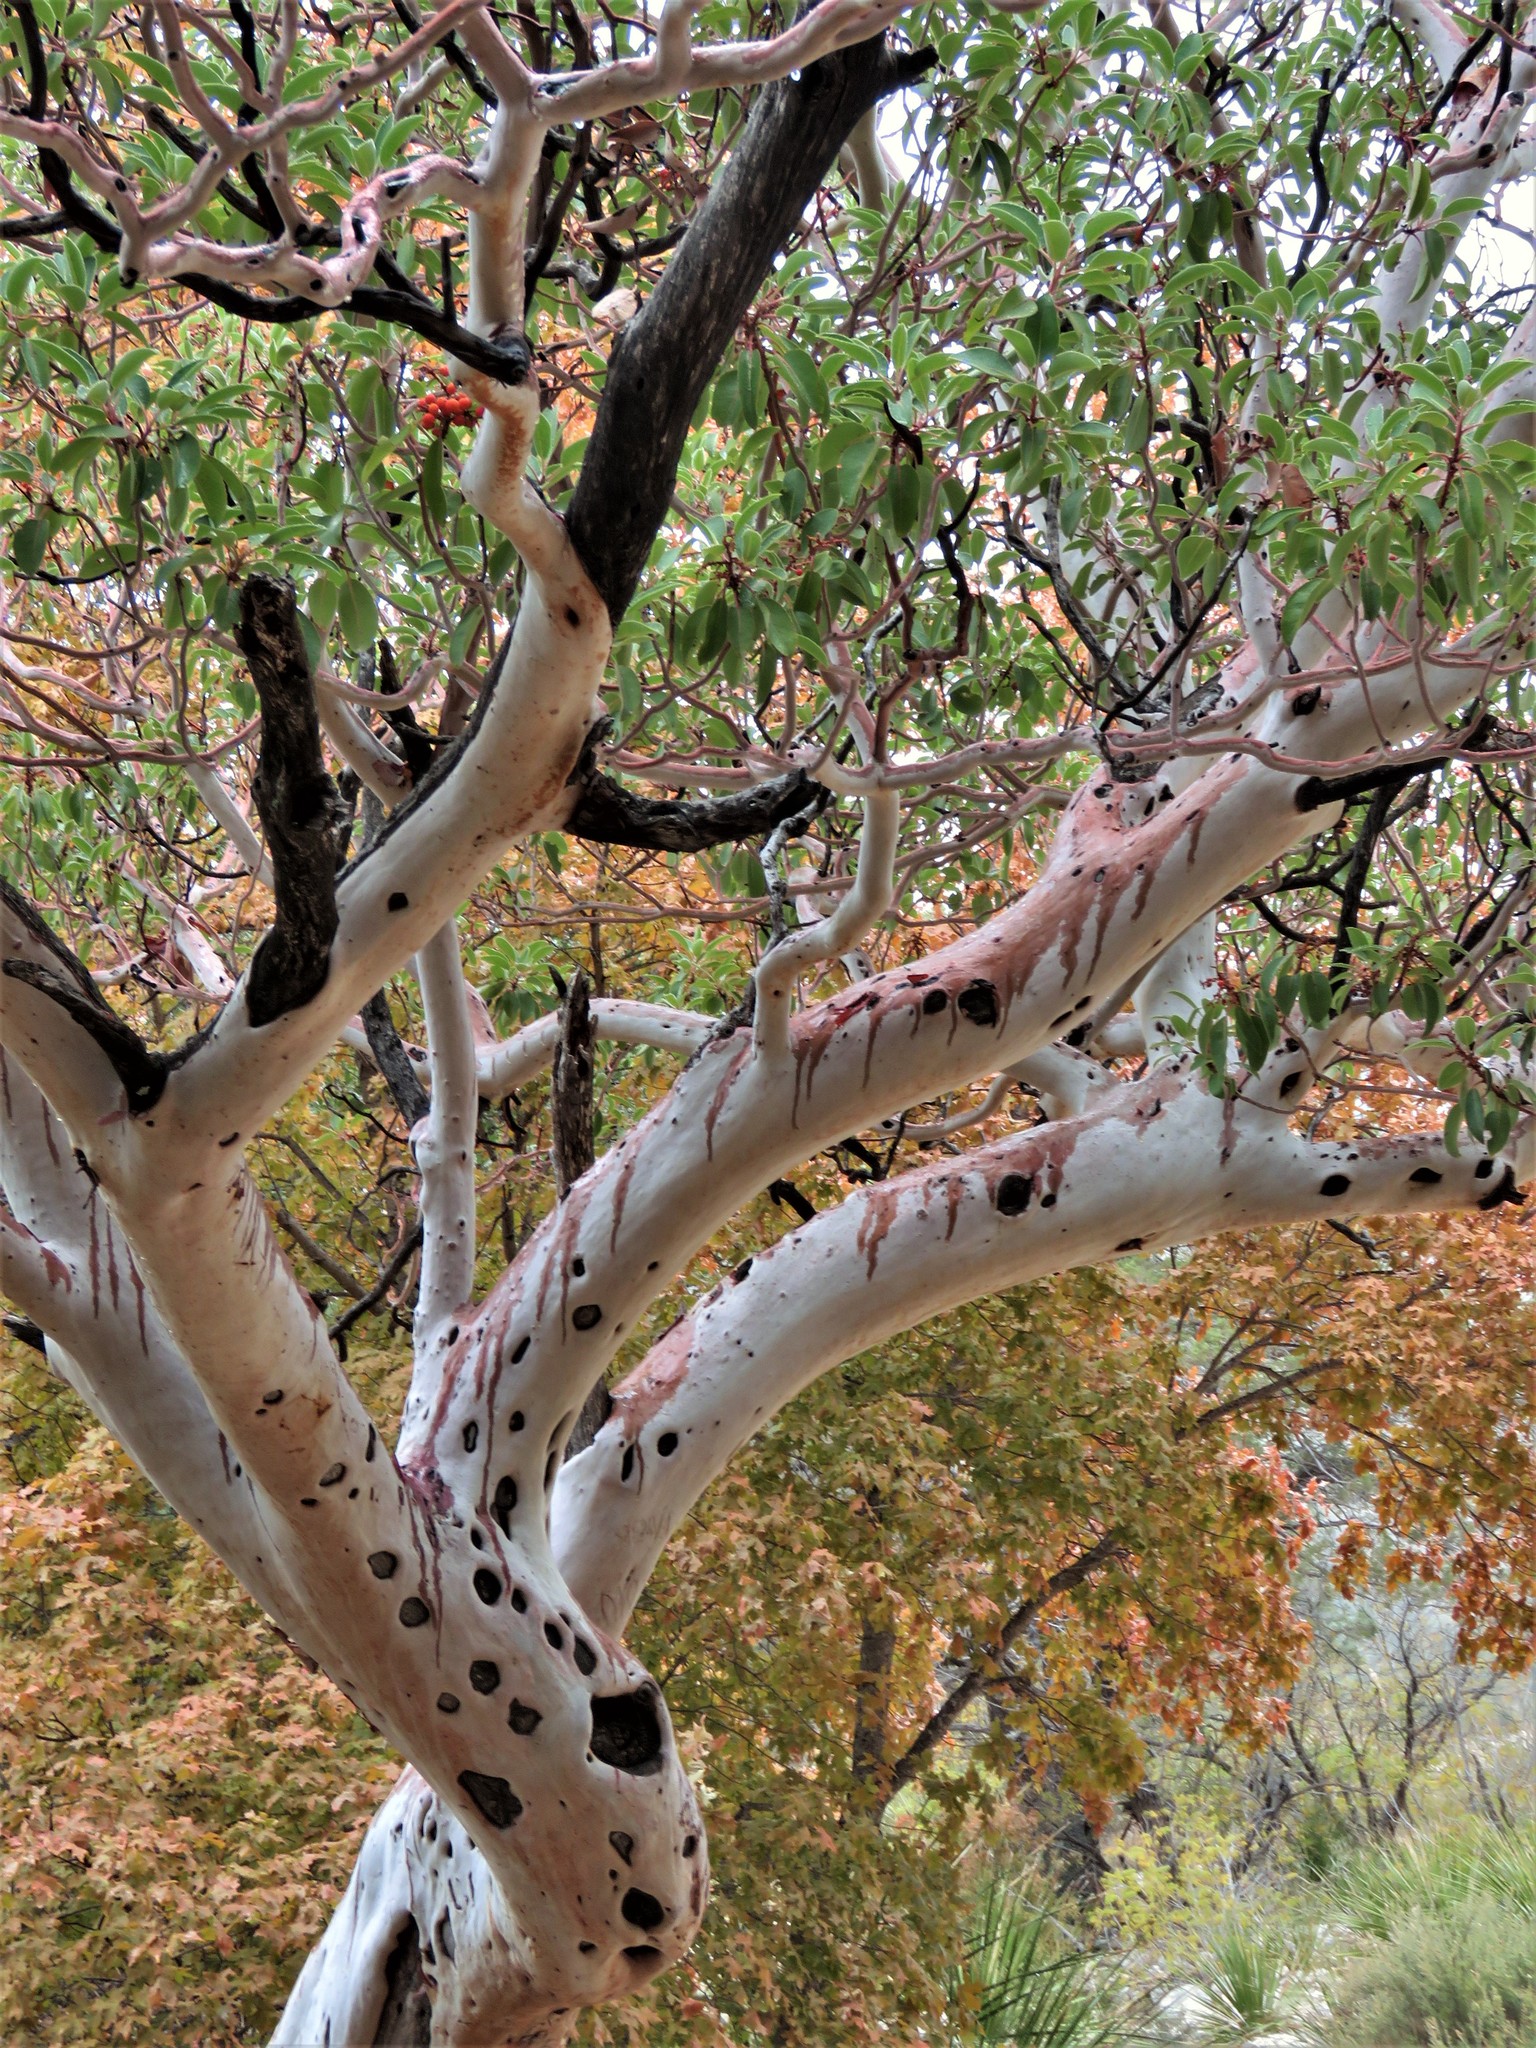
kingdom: Plantae
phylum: Tracheophyta
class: Magnoliopsida
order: Ericales
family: Ericaceae
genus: Arbutus
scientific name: Arbutus xalapensis
